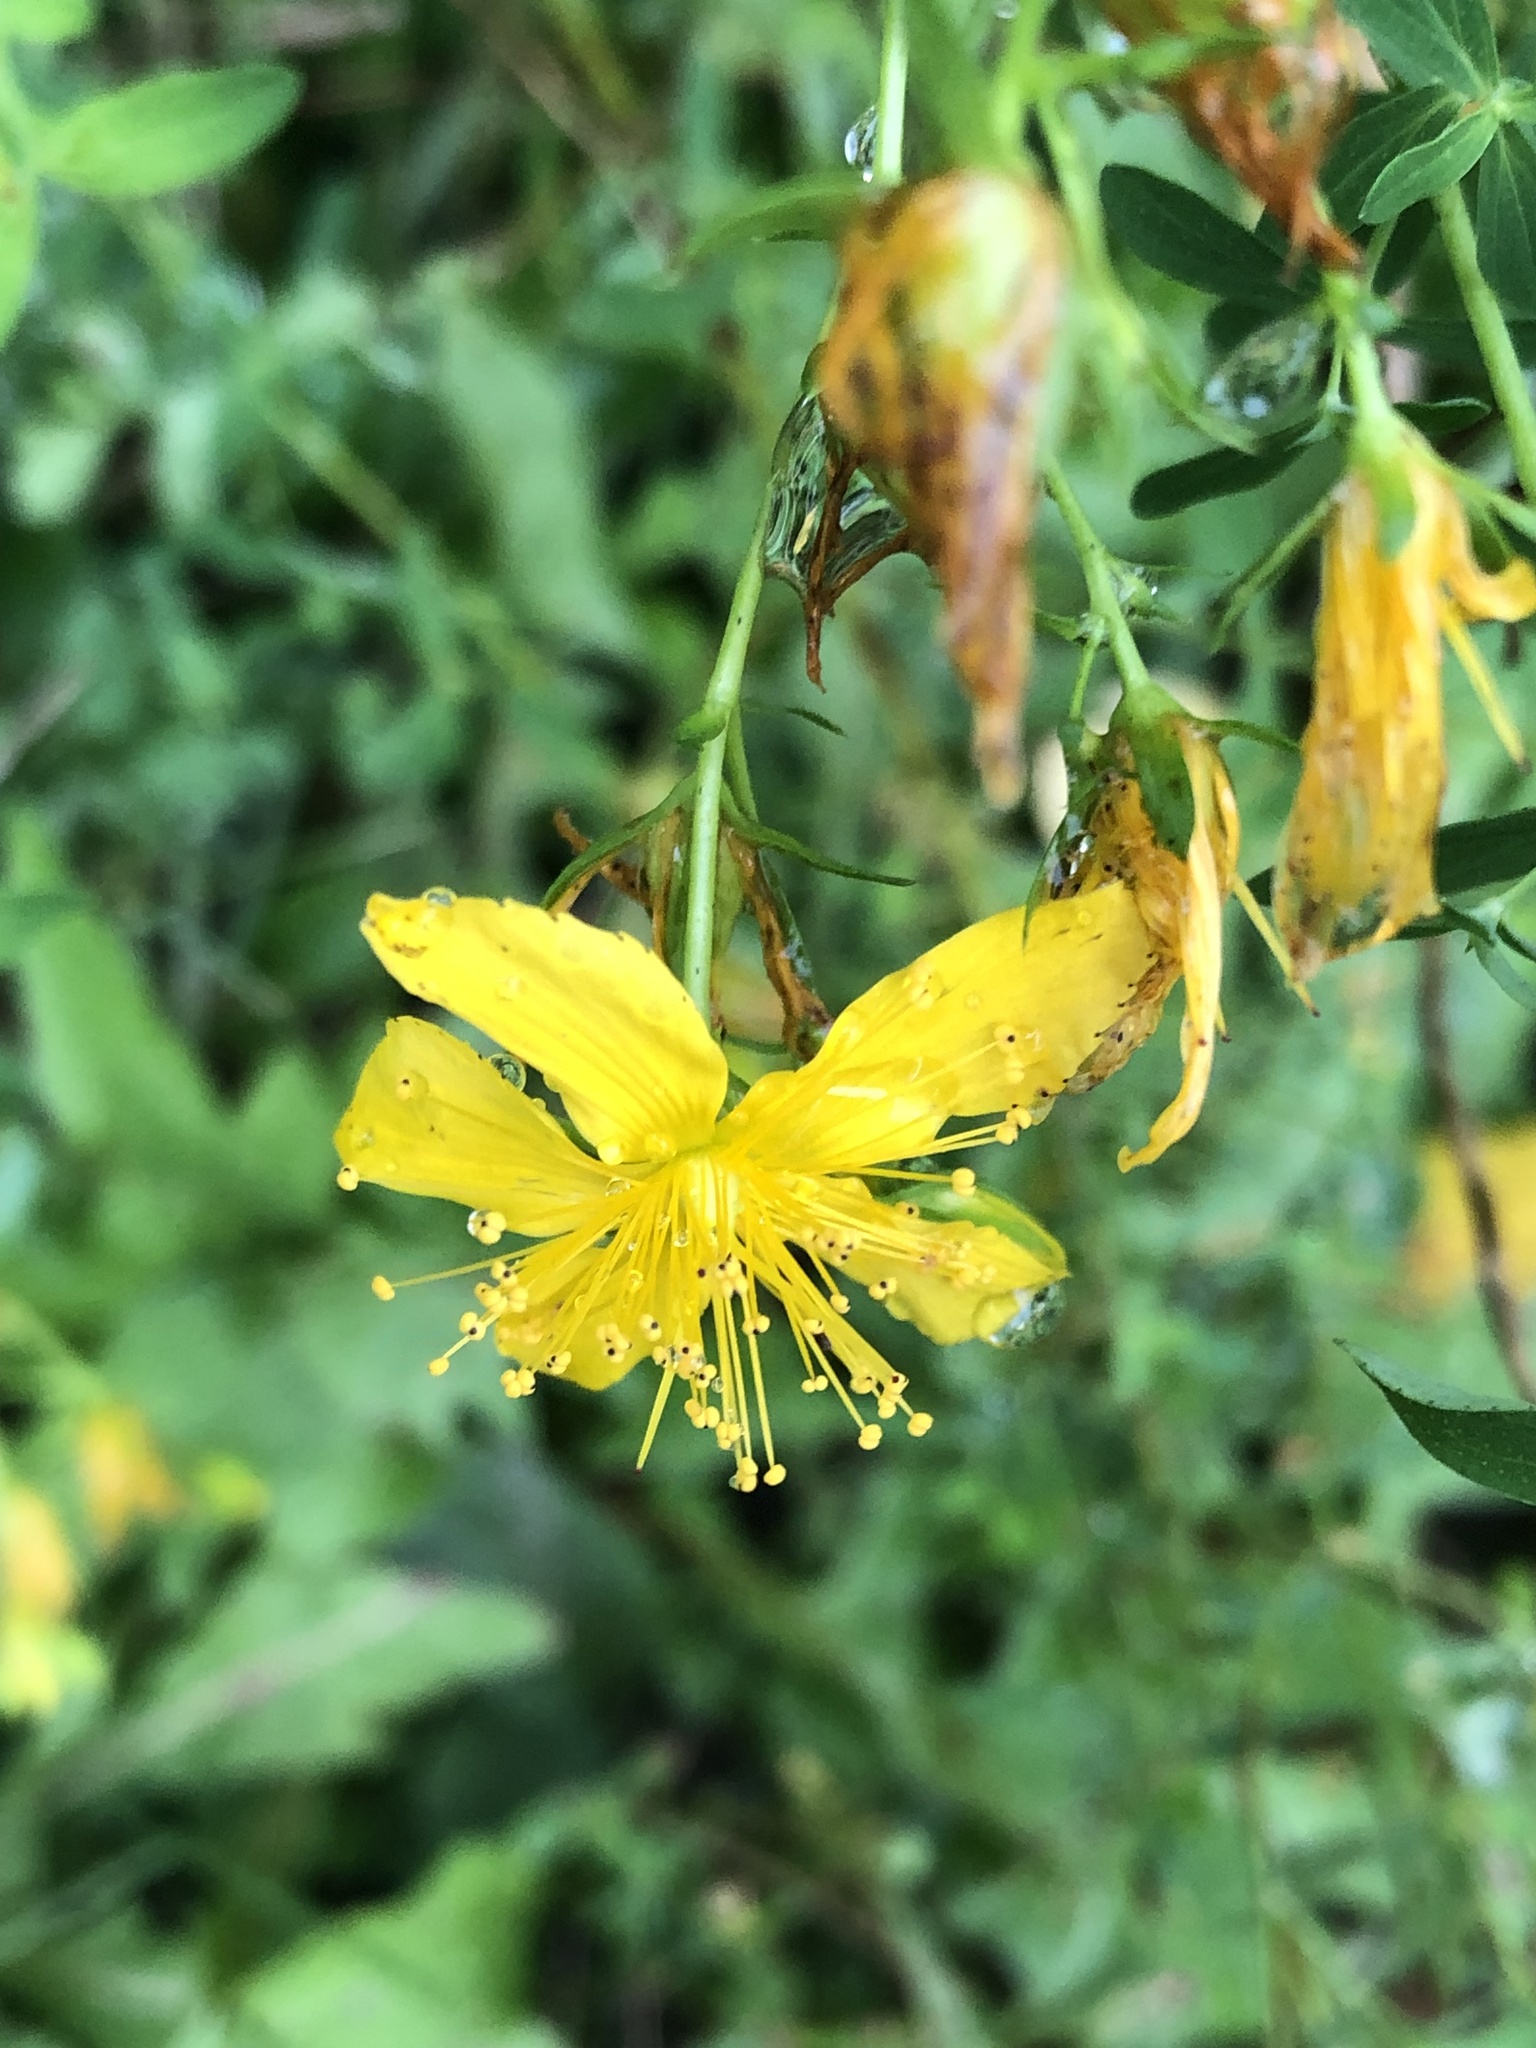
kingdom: Plantae
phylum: Tracheophyta
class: Magnoliopsida
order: Malpighiales
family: Hypericaceae
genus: Hypericum
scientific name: Hypericum perforatum
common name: Common st. johnswort
